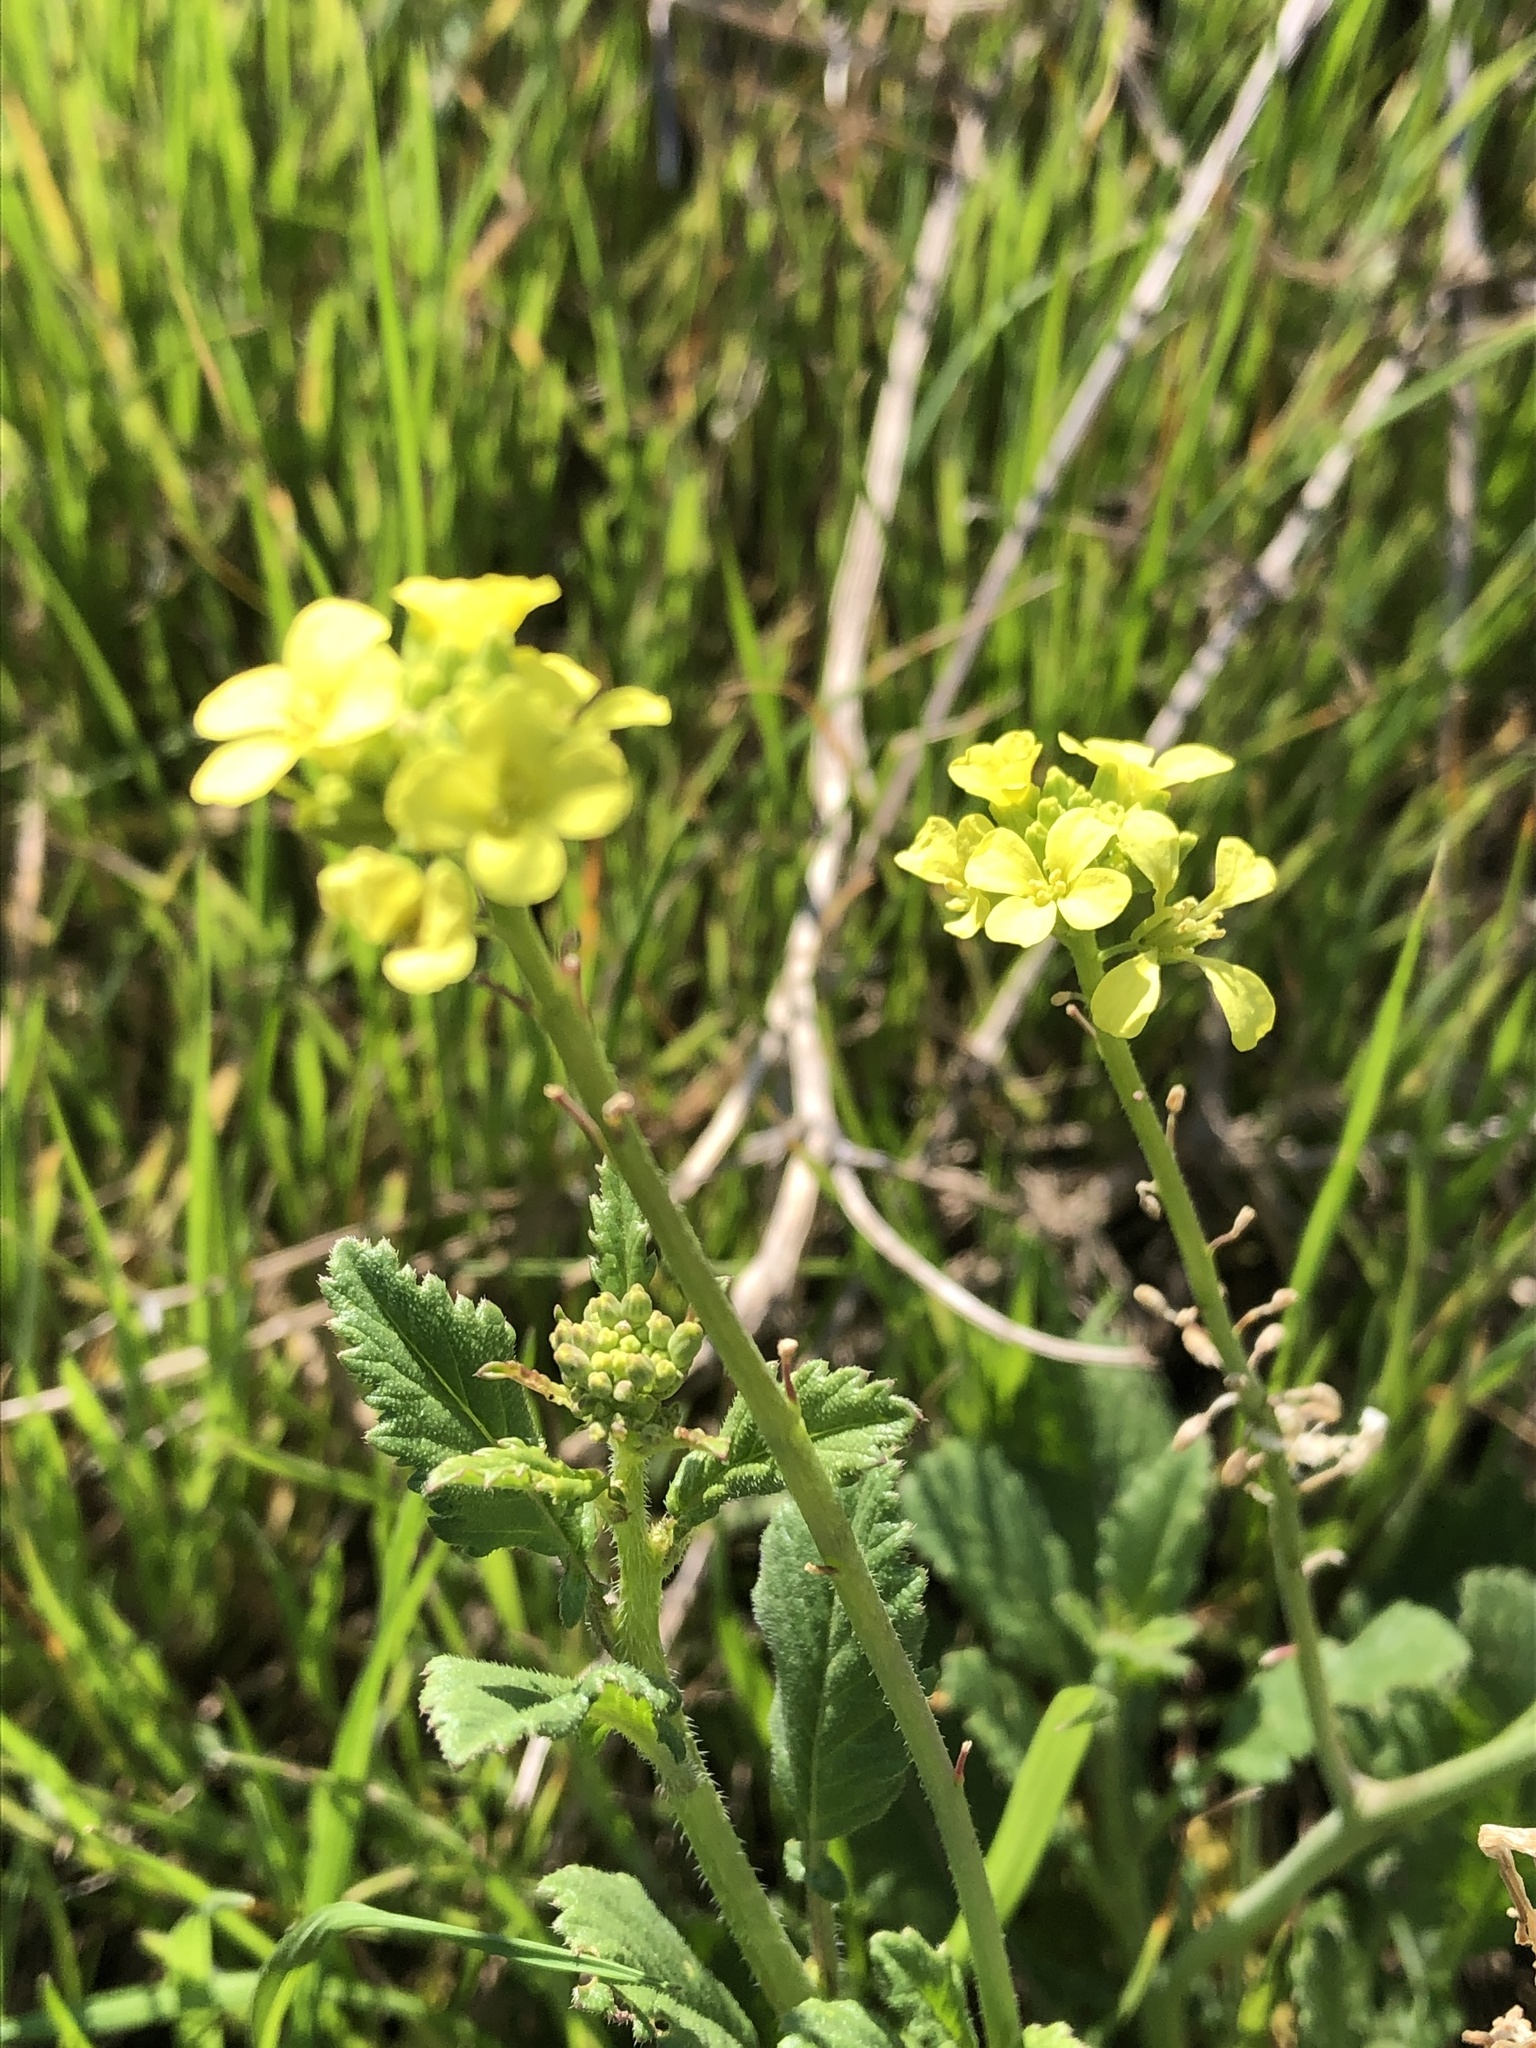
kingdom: Plantae
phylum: Tracheophyta
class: Magnoliopsida
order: Brassicales
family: Brassicaceae
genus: Rapistrum
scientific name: Rapistrum rugosum
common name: Annual bastardcabbage
